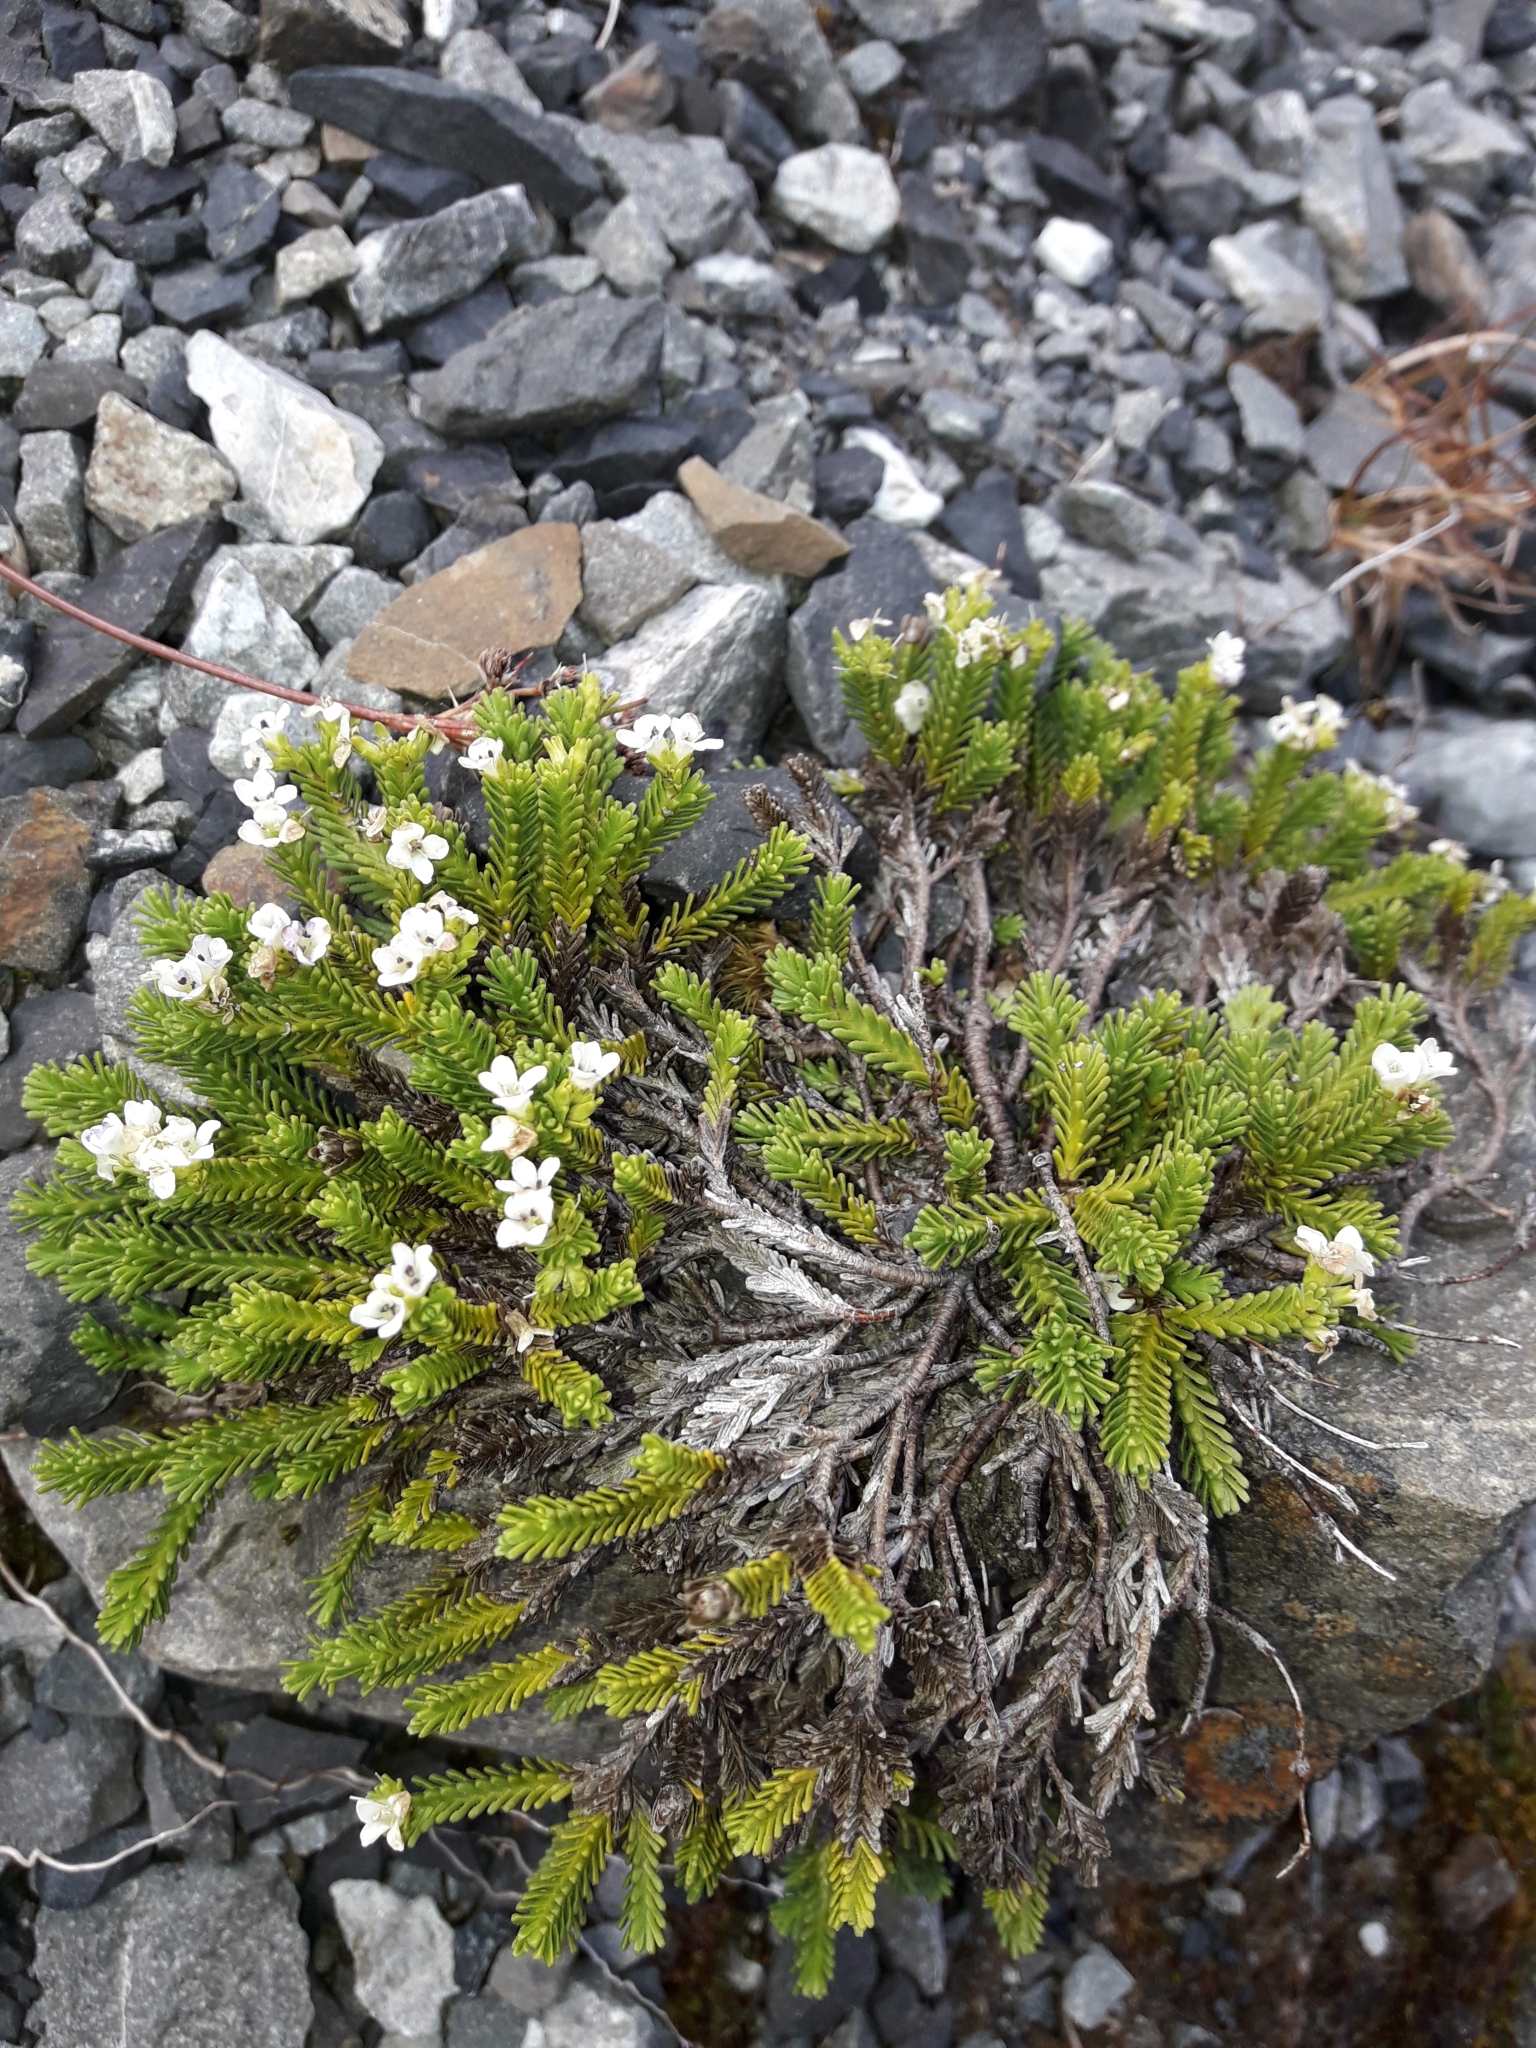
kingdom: Plantae
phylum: Tracheophyta
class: Magnoliopsida
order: Lamiales
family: Plantaginaceae
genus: Veronica
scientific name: Veronica hookeri
